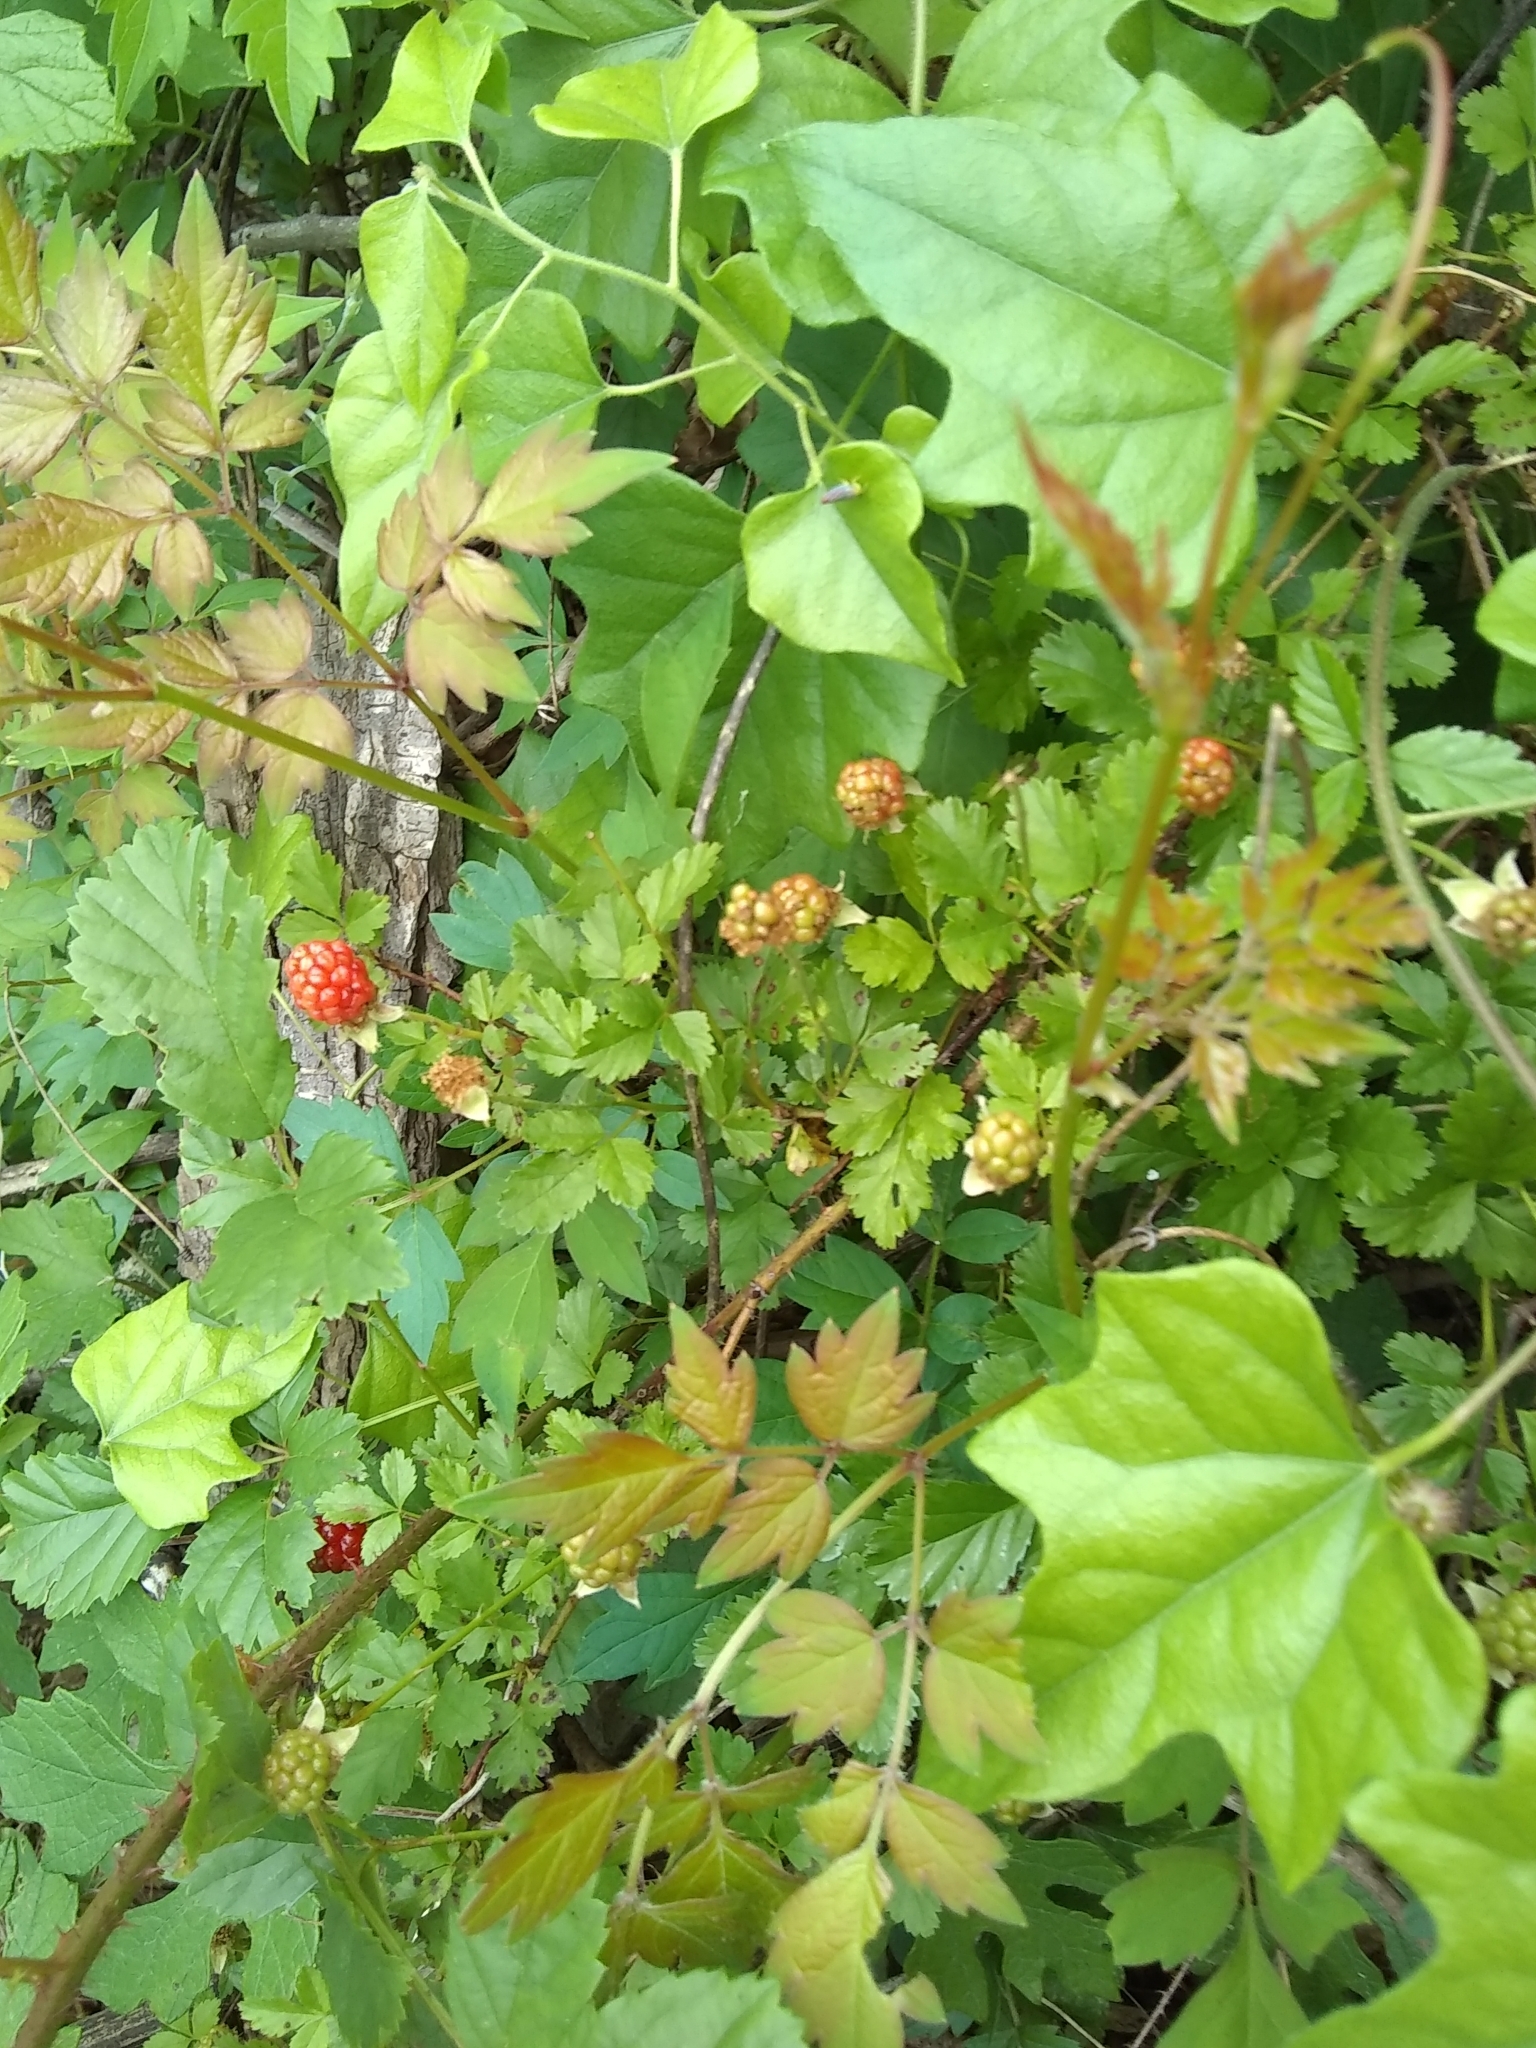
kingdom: Plantae
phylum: Tracheophyta
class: Magnoliopsida
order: Rosales
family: Rosaceae
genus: Rubus
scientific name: Rubus trivialis
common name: Southern dewberry
